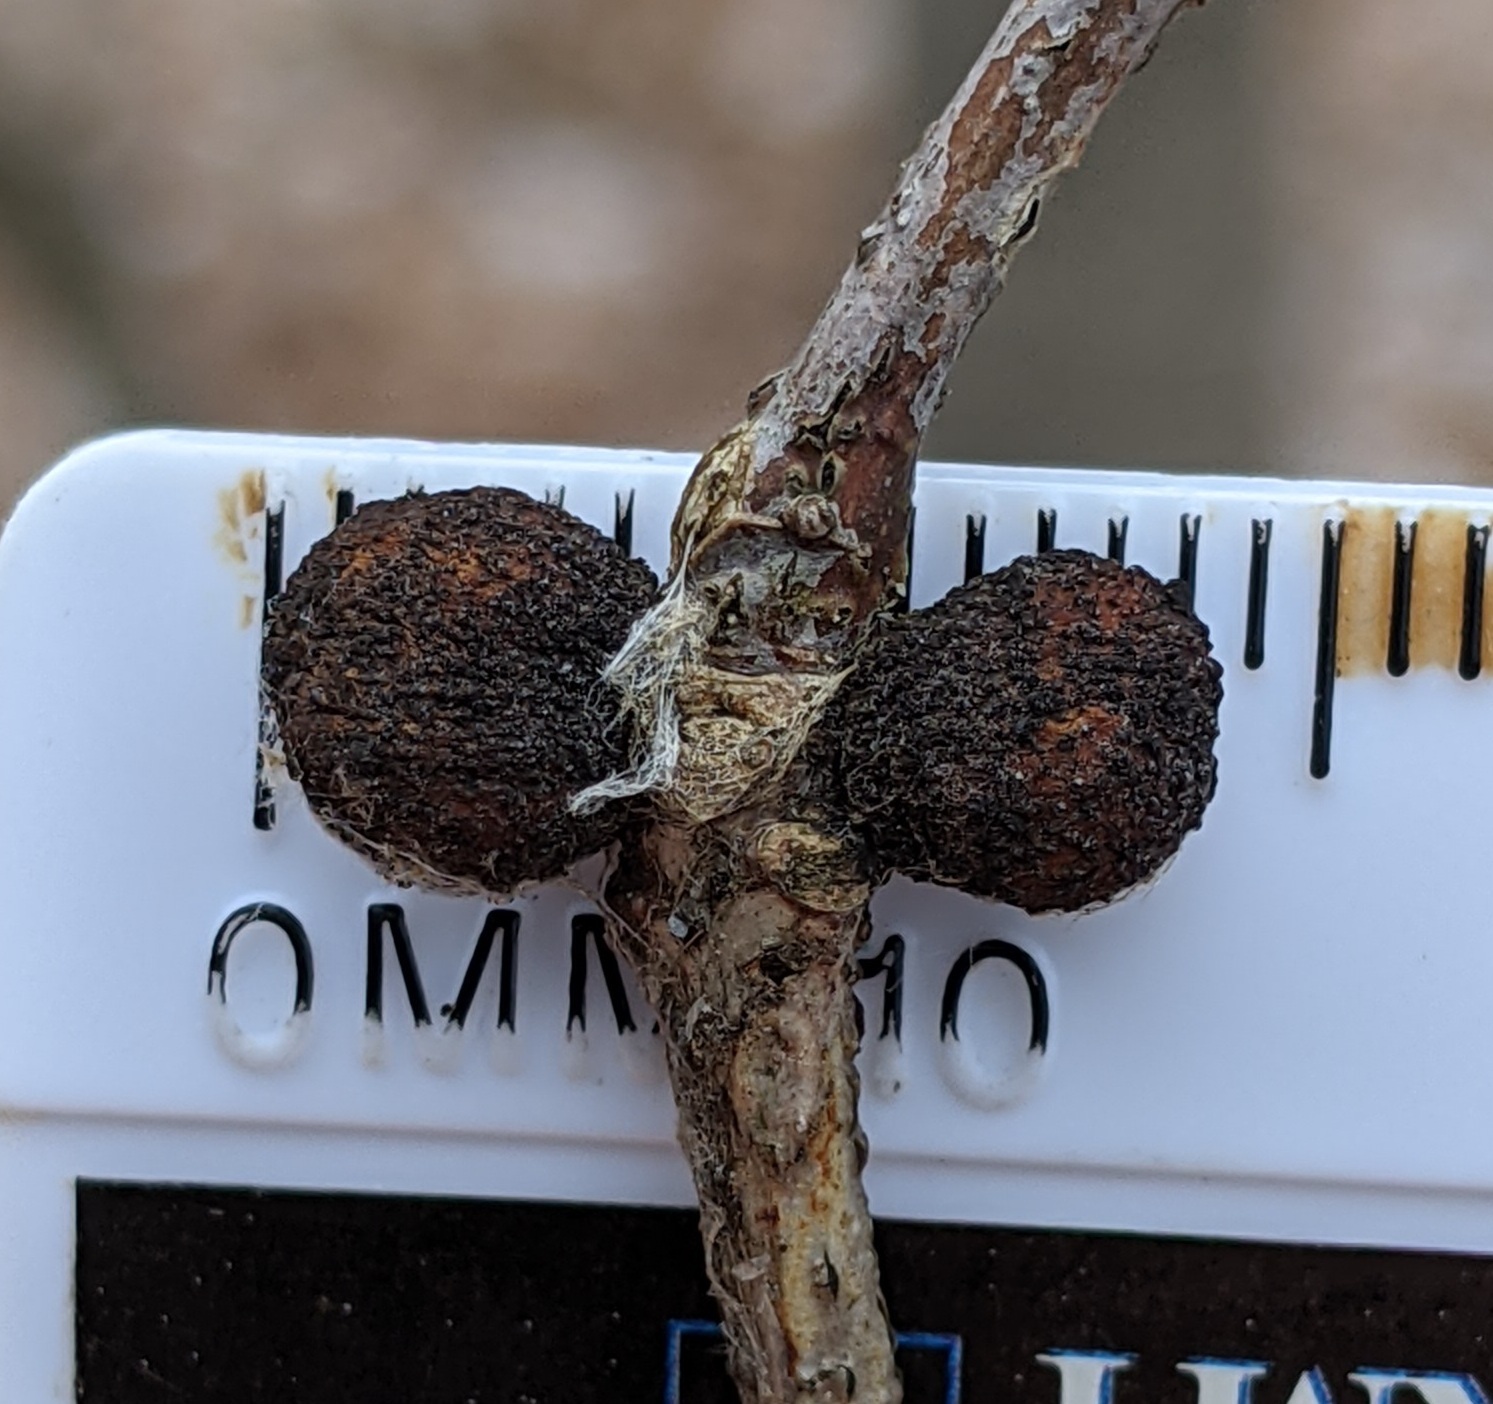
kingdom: Animalia
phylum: Arthropoda
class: Insecta
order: Hymenoptera
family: Cynipidae
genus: Disholcaspis
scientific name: Disholcaspis quercusglobulus
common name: Round bullet gall wasp
